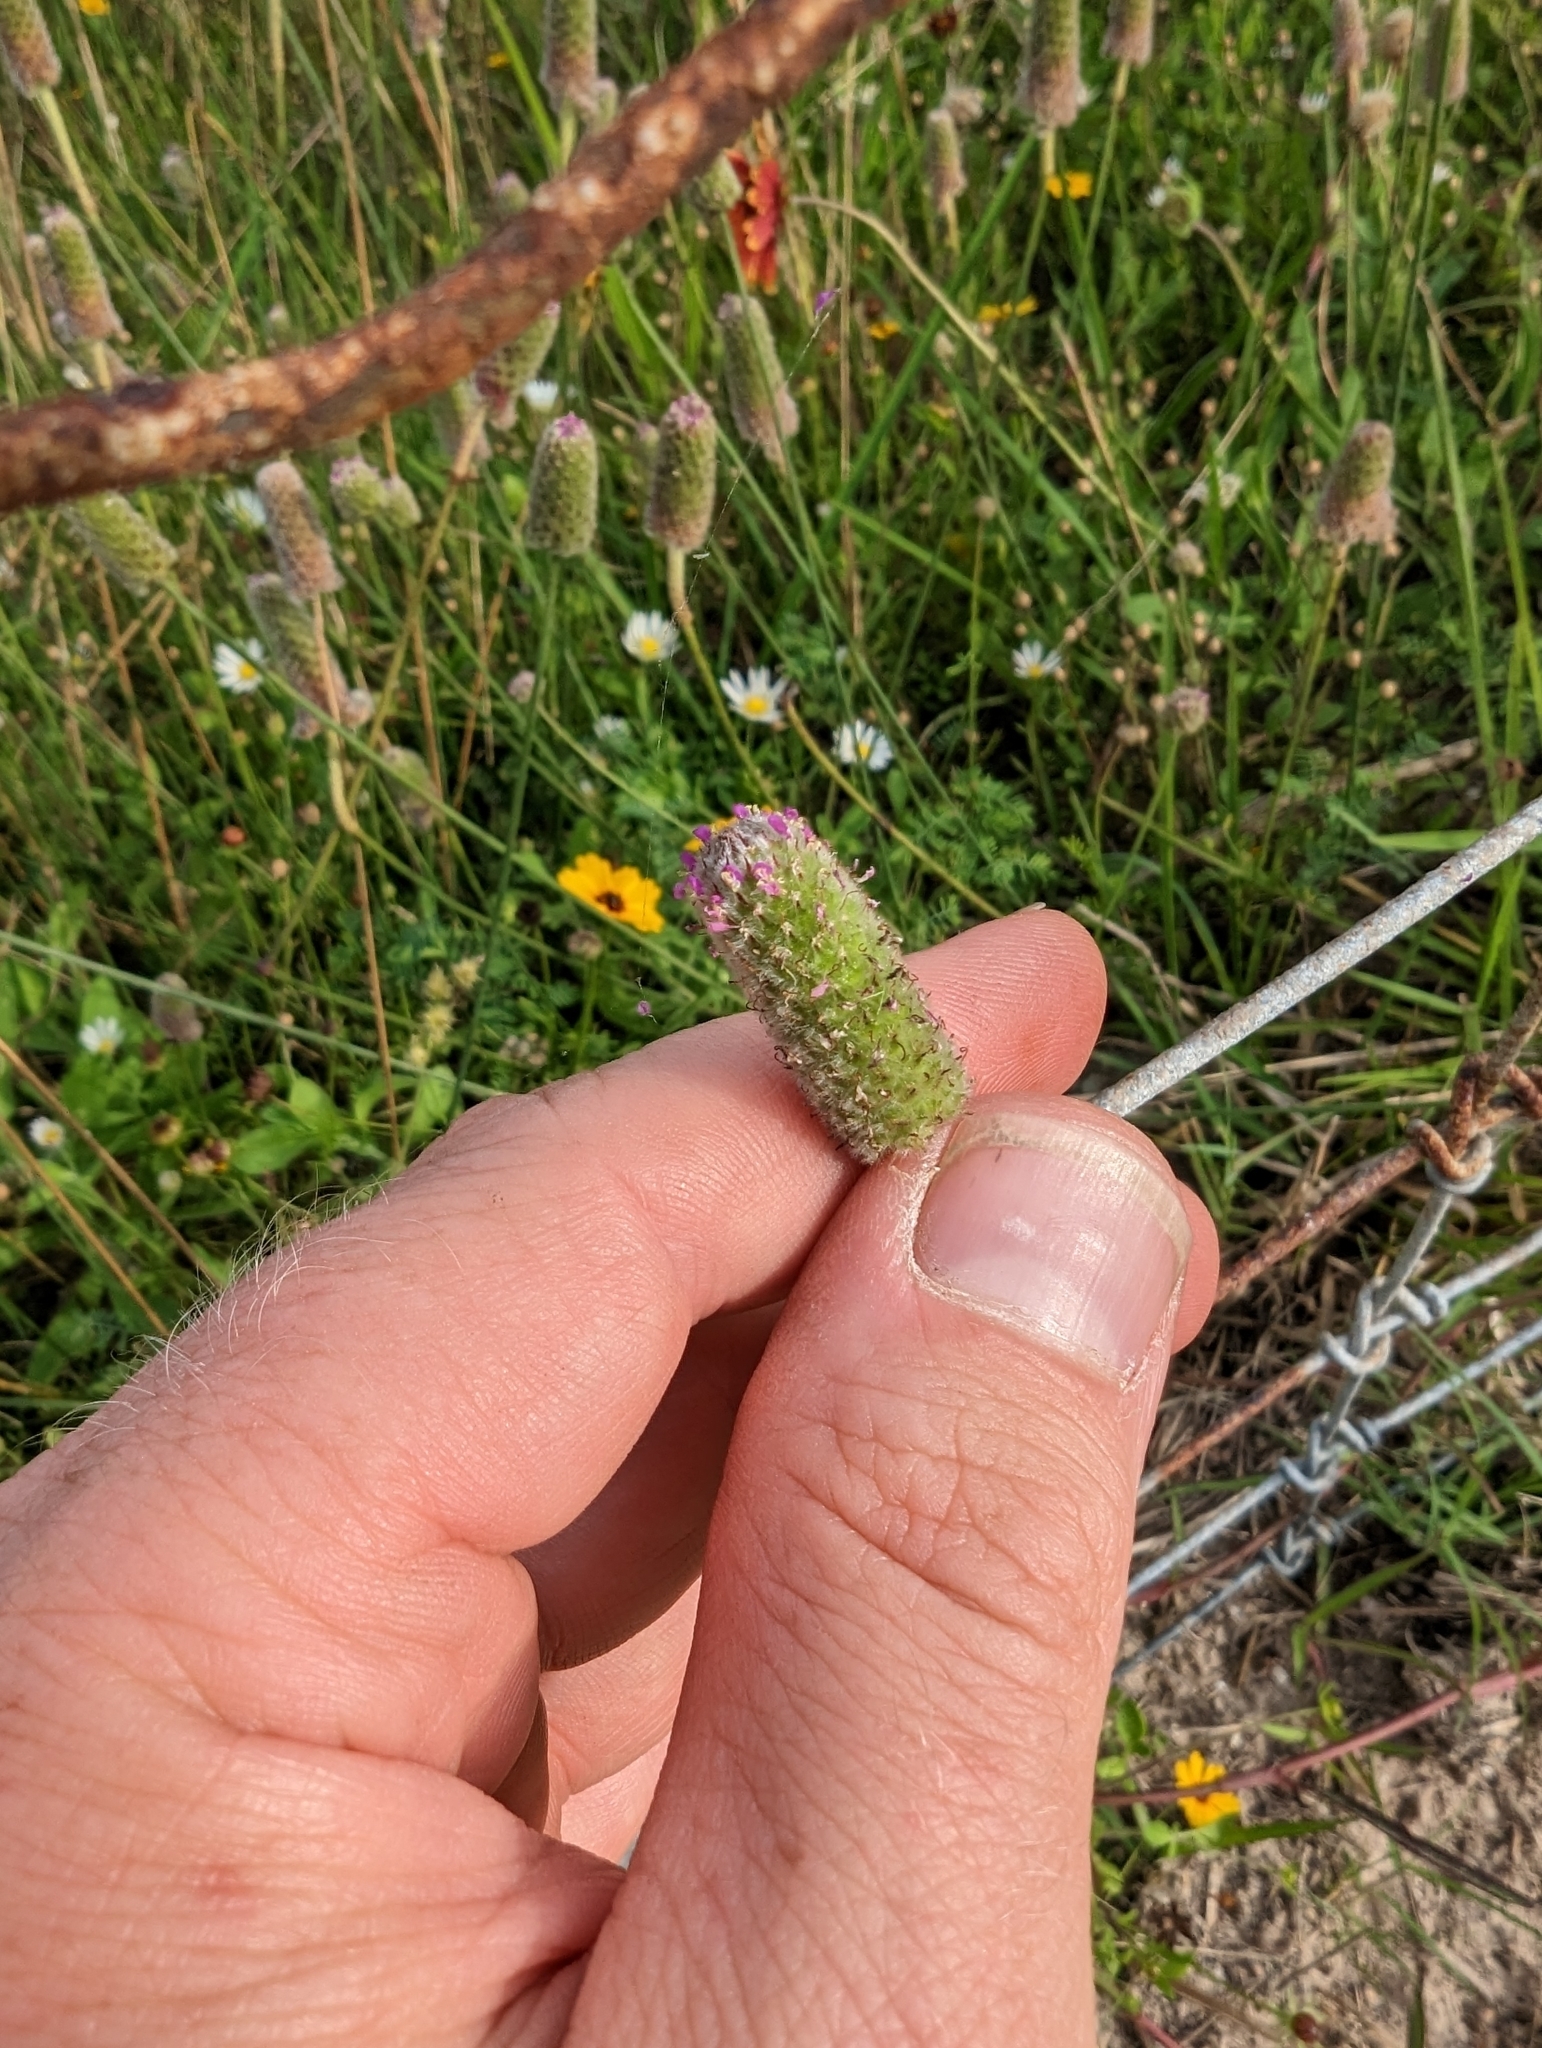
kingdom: Plantae
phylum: Tracheophyta
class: Magnoliopsida
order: Fabales
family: Fabaceae
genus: Dalea
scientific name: Dalea emarginata
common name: Wedgeleaf prairie clover
